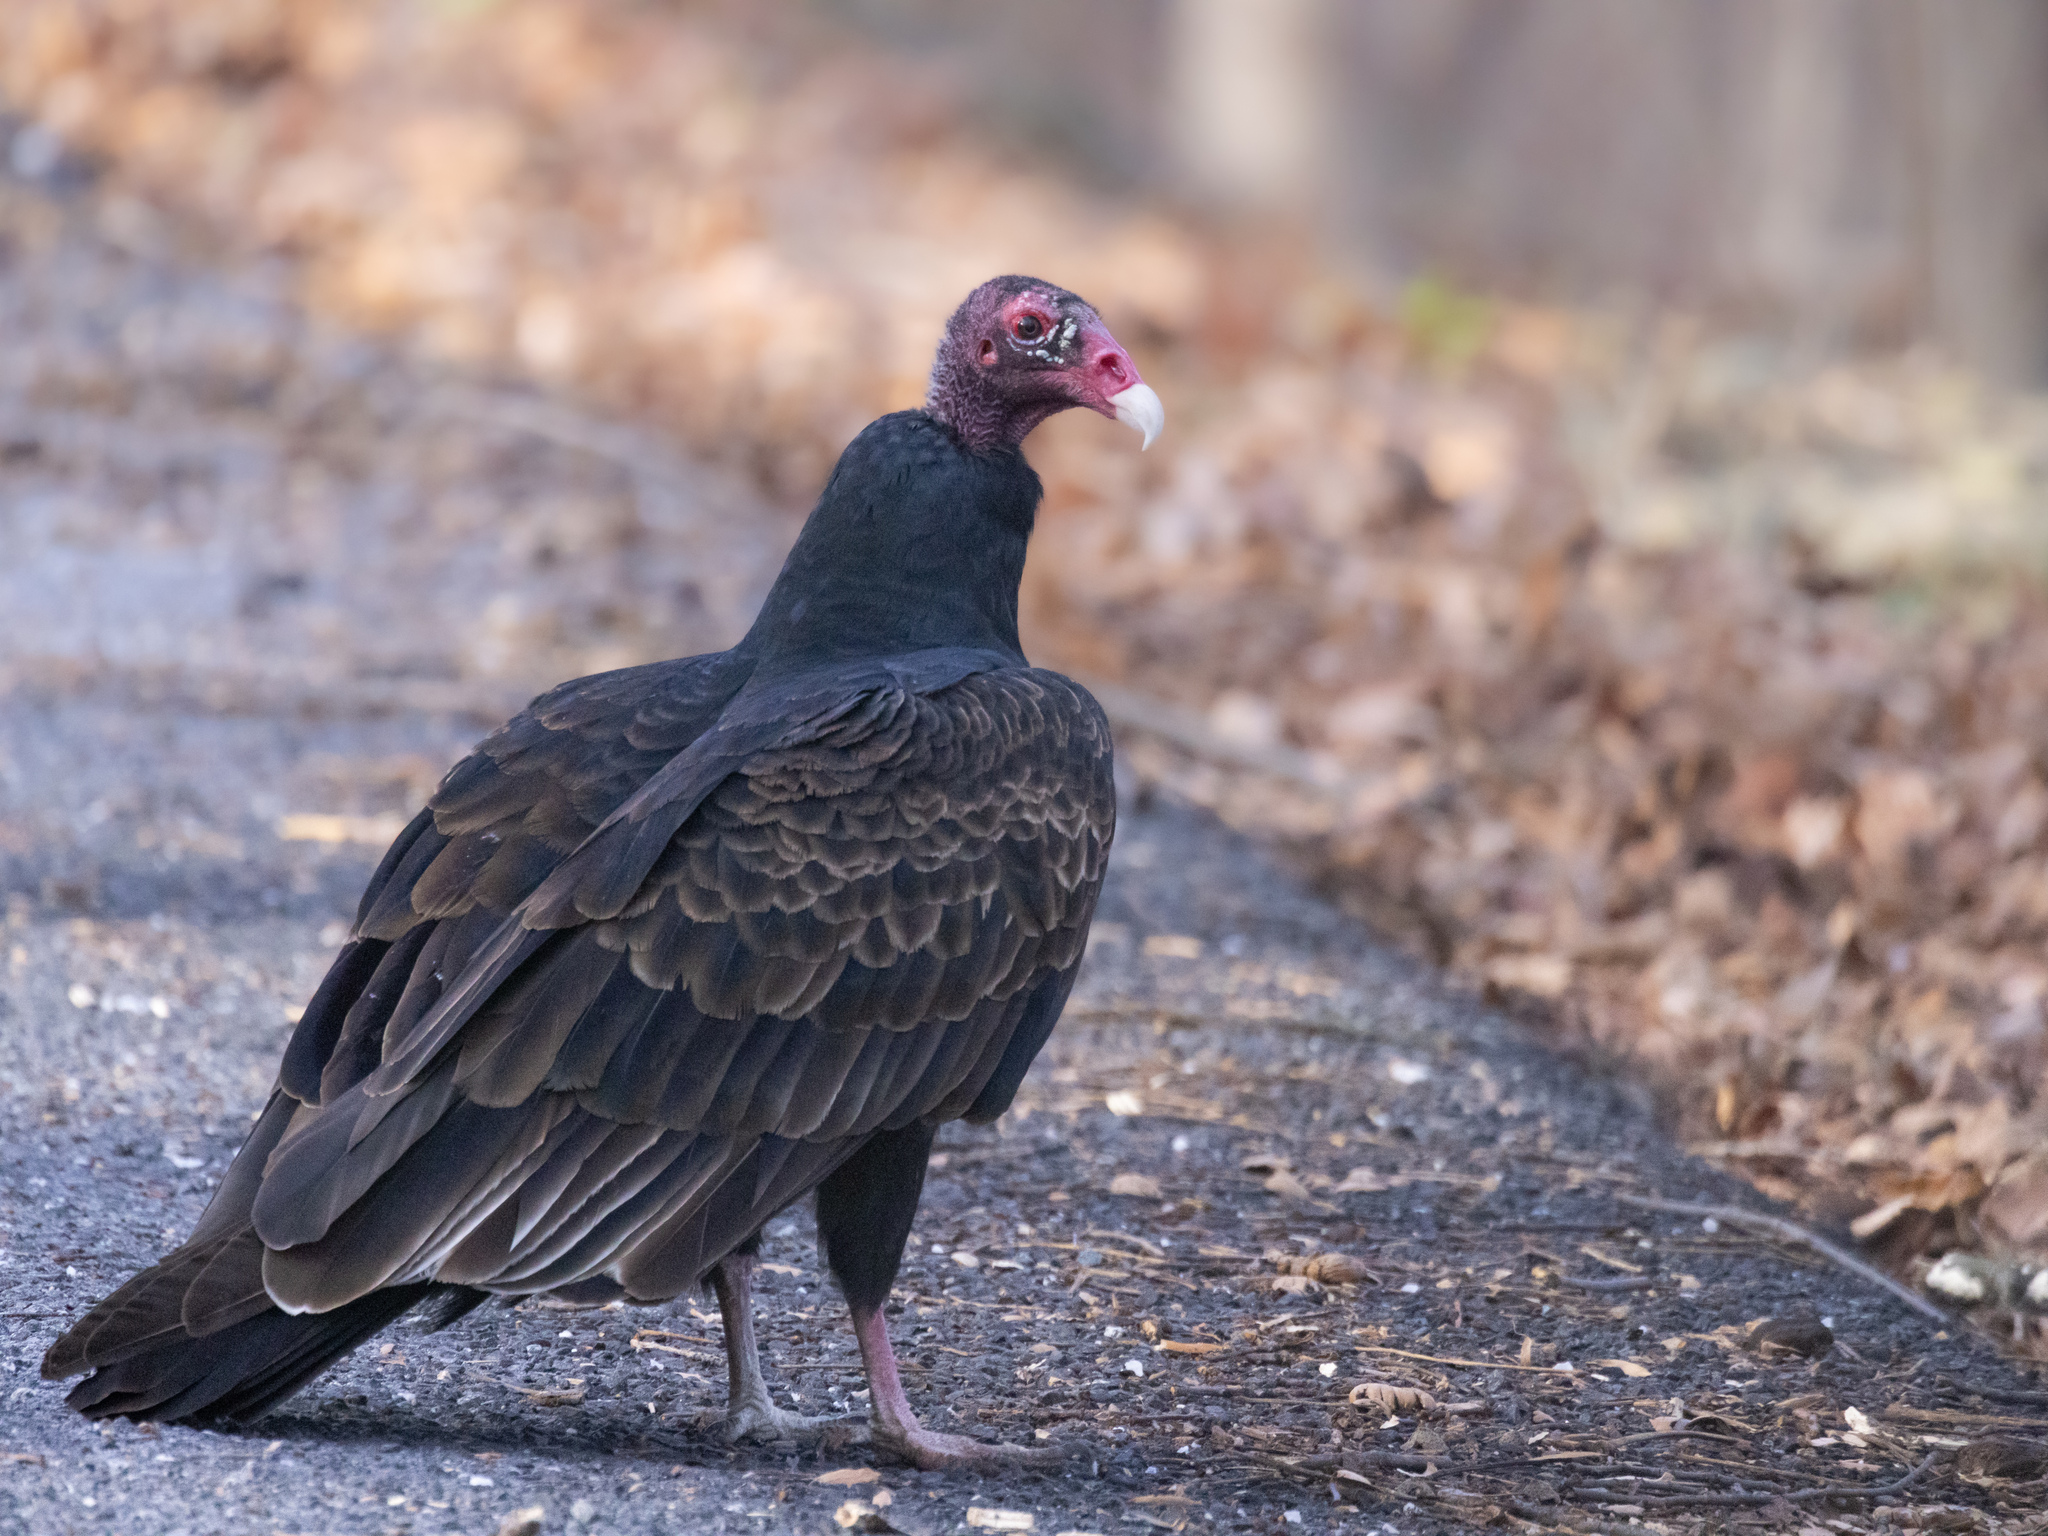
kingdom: Animalia
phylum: Chordata
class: Aves
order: Accipitriformes
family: Cathartidae
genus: Cathartes
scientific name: Cathartes aura
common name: Turkey vulture
